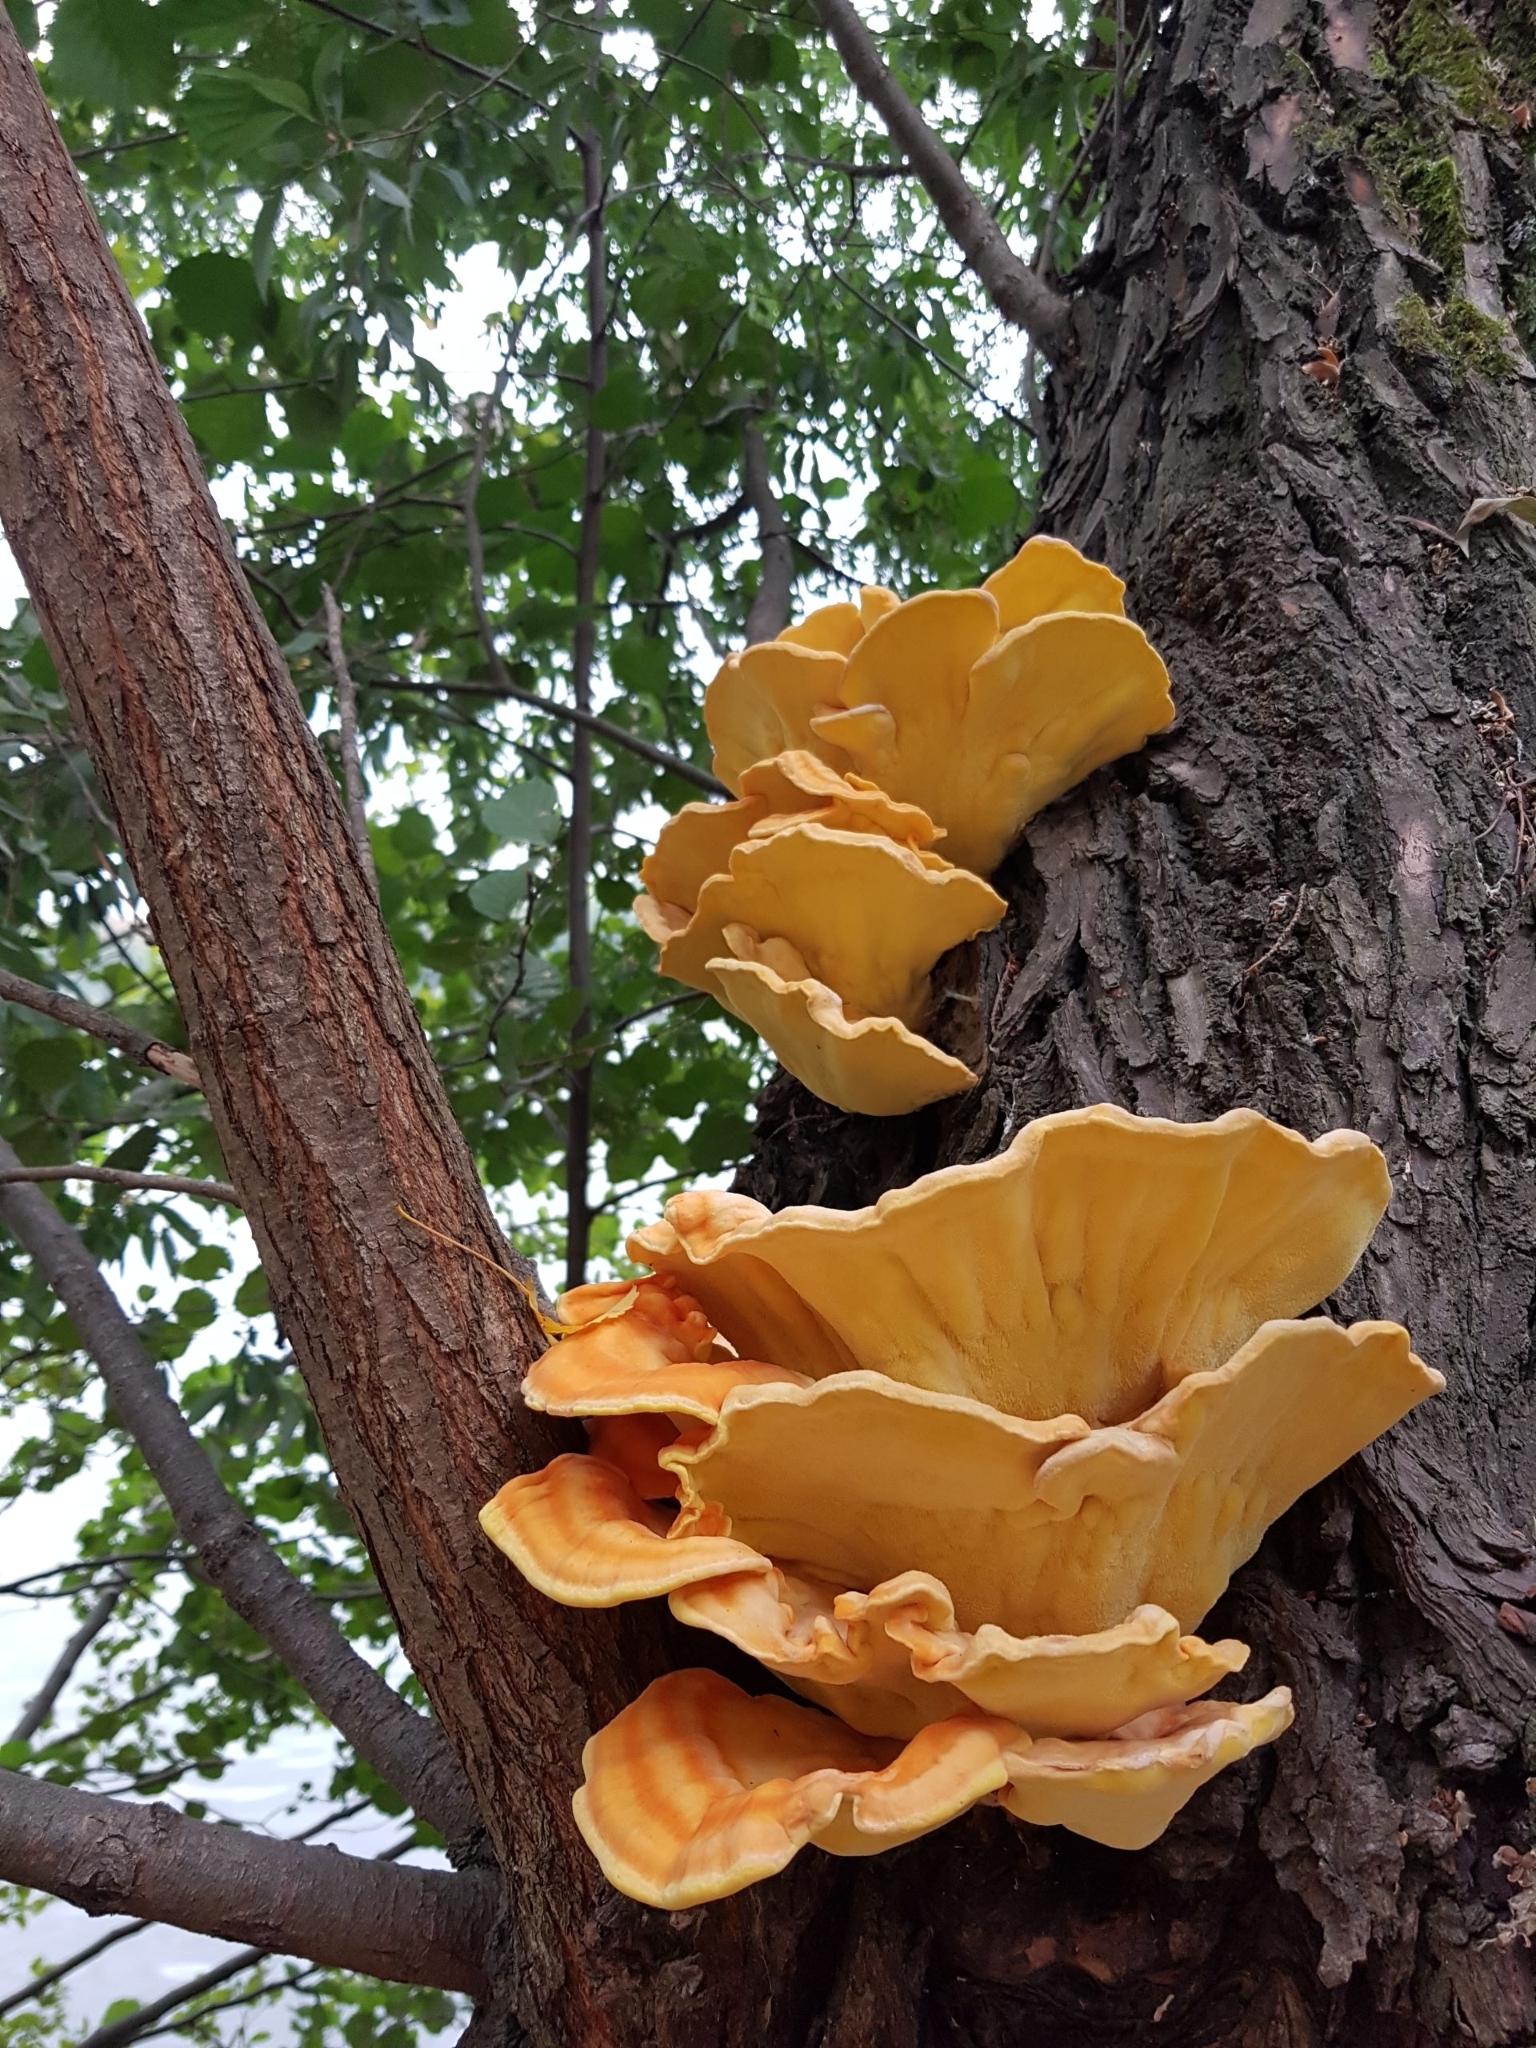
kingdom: Fungi
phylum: Basidiomycota
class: Agaricomycetes
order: Polyporales
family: Laetiporaceae
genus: Laetiporus
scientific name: Laetiporus sulphureus
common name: Chicken of the woods
